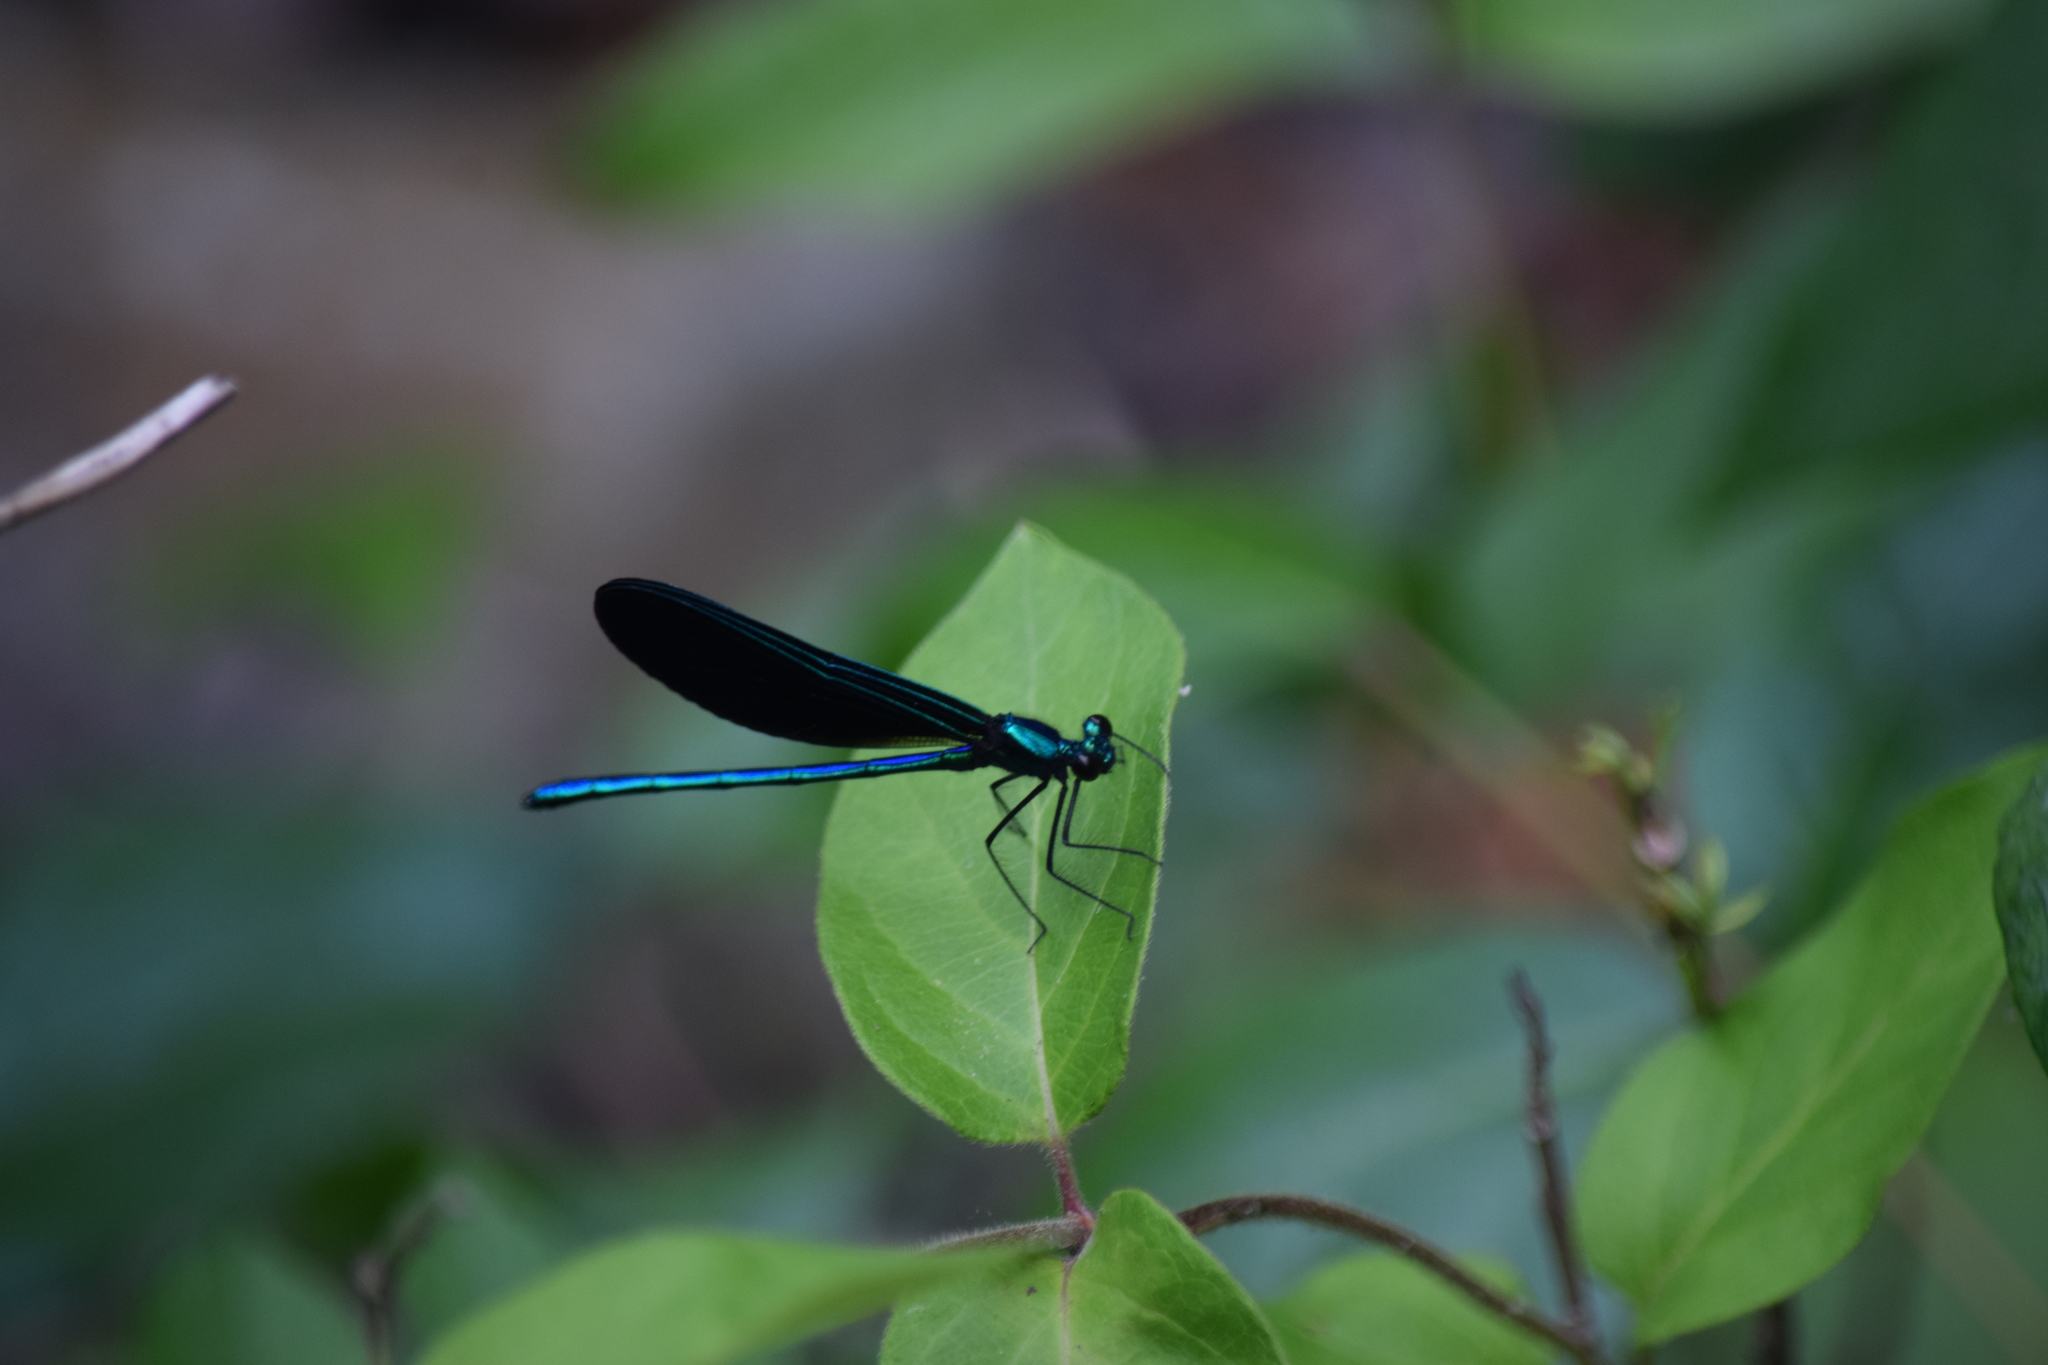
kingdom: Animalia
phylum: Arthropoda
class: Insecta
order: Odonata
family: Calopterygidae
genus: Calopteryx
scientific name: Calopteryx maculata
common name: Ebony jewelwing
